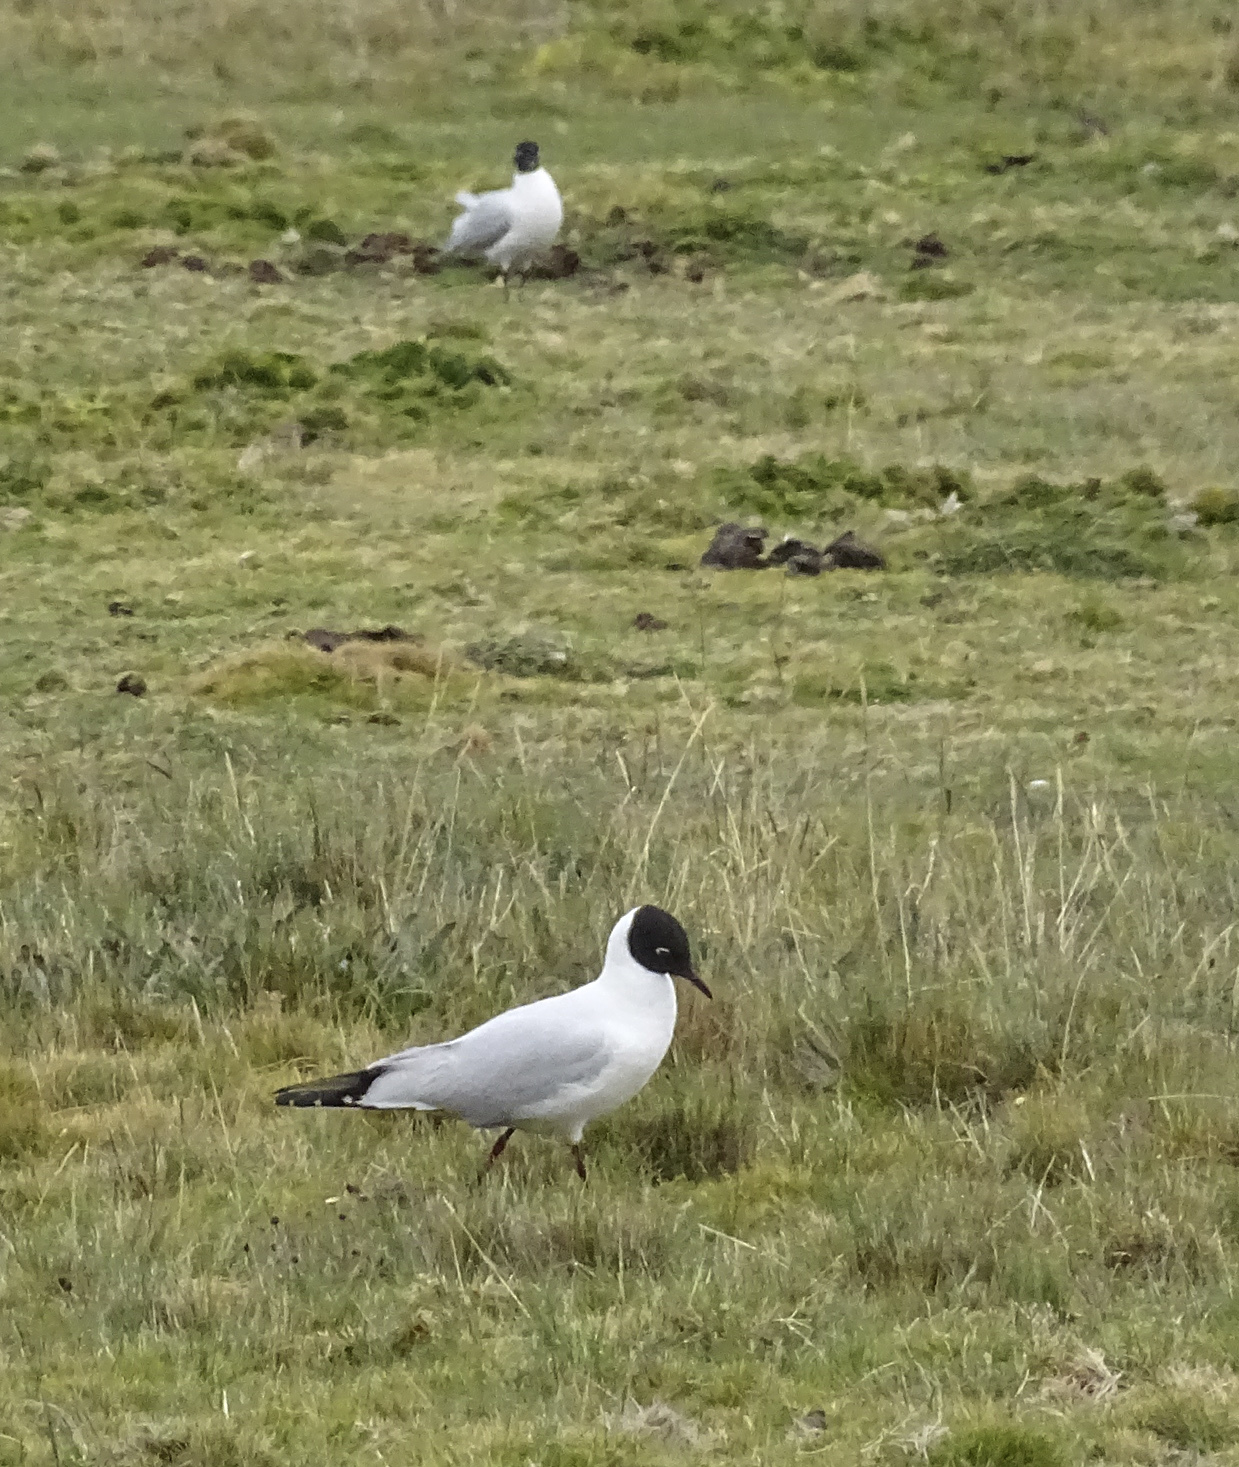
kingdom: Animalia
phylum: Chordata
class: Aves
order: Charadriiformes
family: Laridae
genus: Chroicocephalus
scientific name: Chroicocephalus serranus
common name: Andean gull
